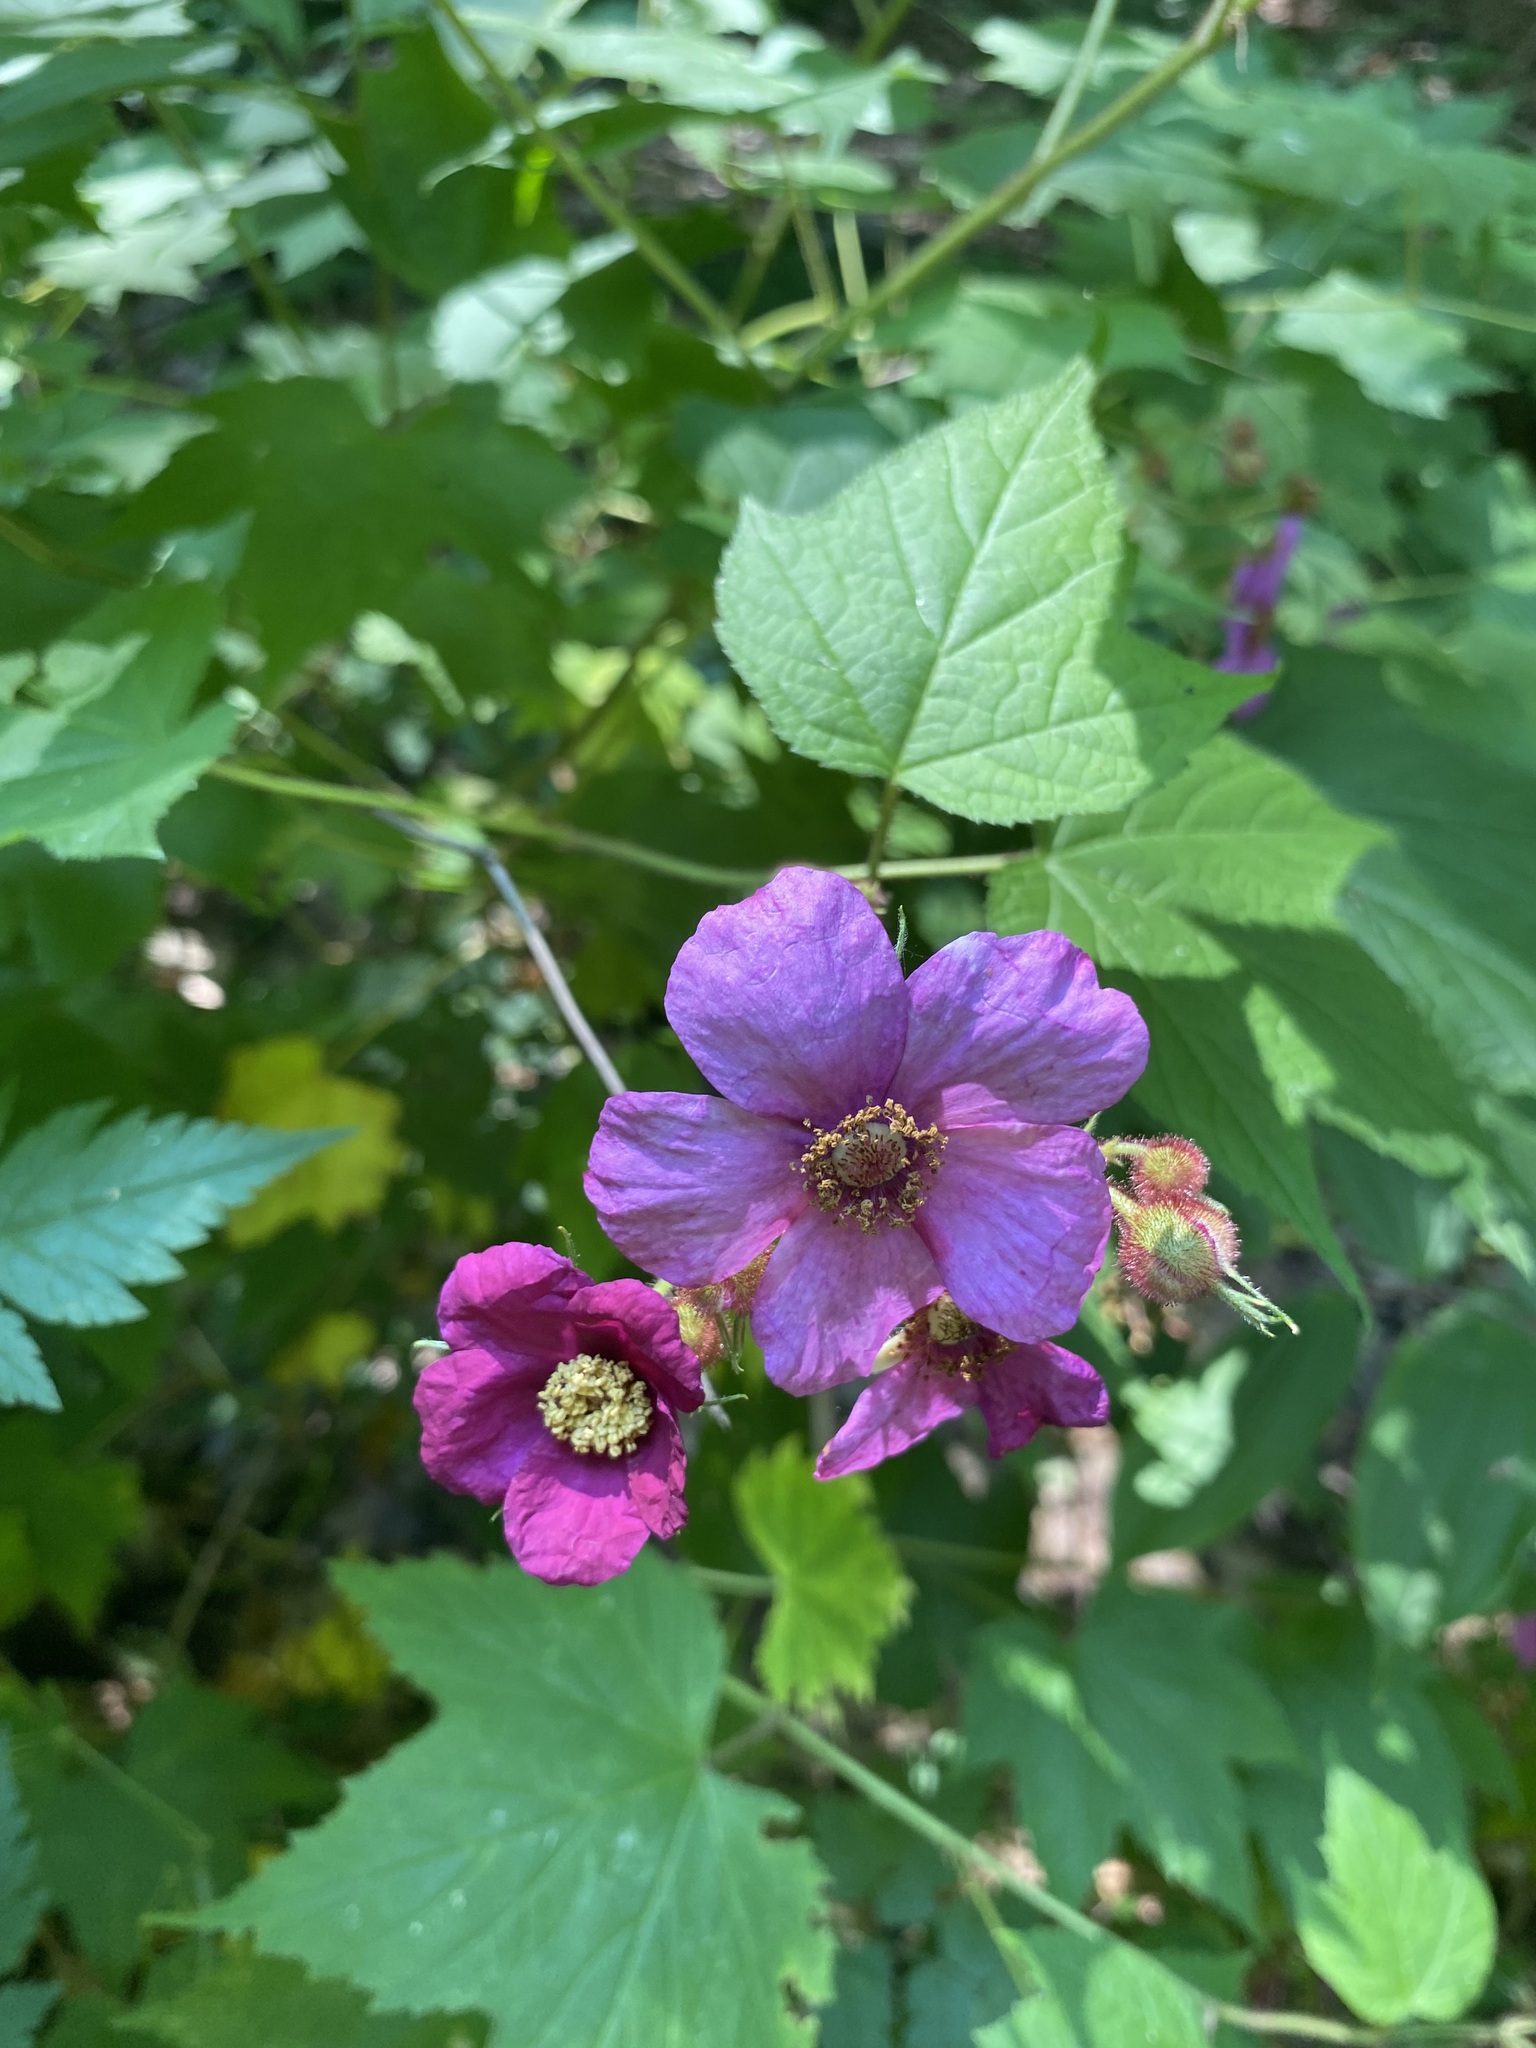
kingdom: Plantae
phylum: Tracheophyta
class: Magnoliopsida
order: Rosales
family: Rosaceae
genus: Rubus
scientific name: Rubus odoratus
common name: Purple-flowered raspberry
